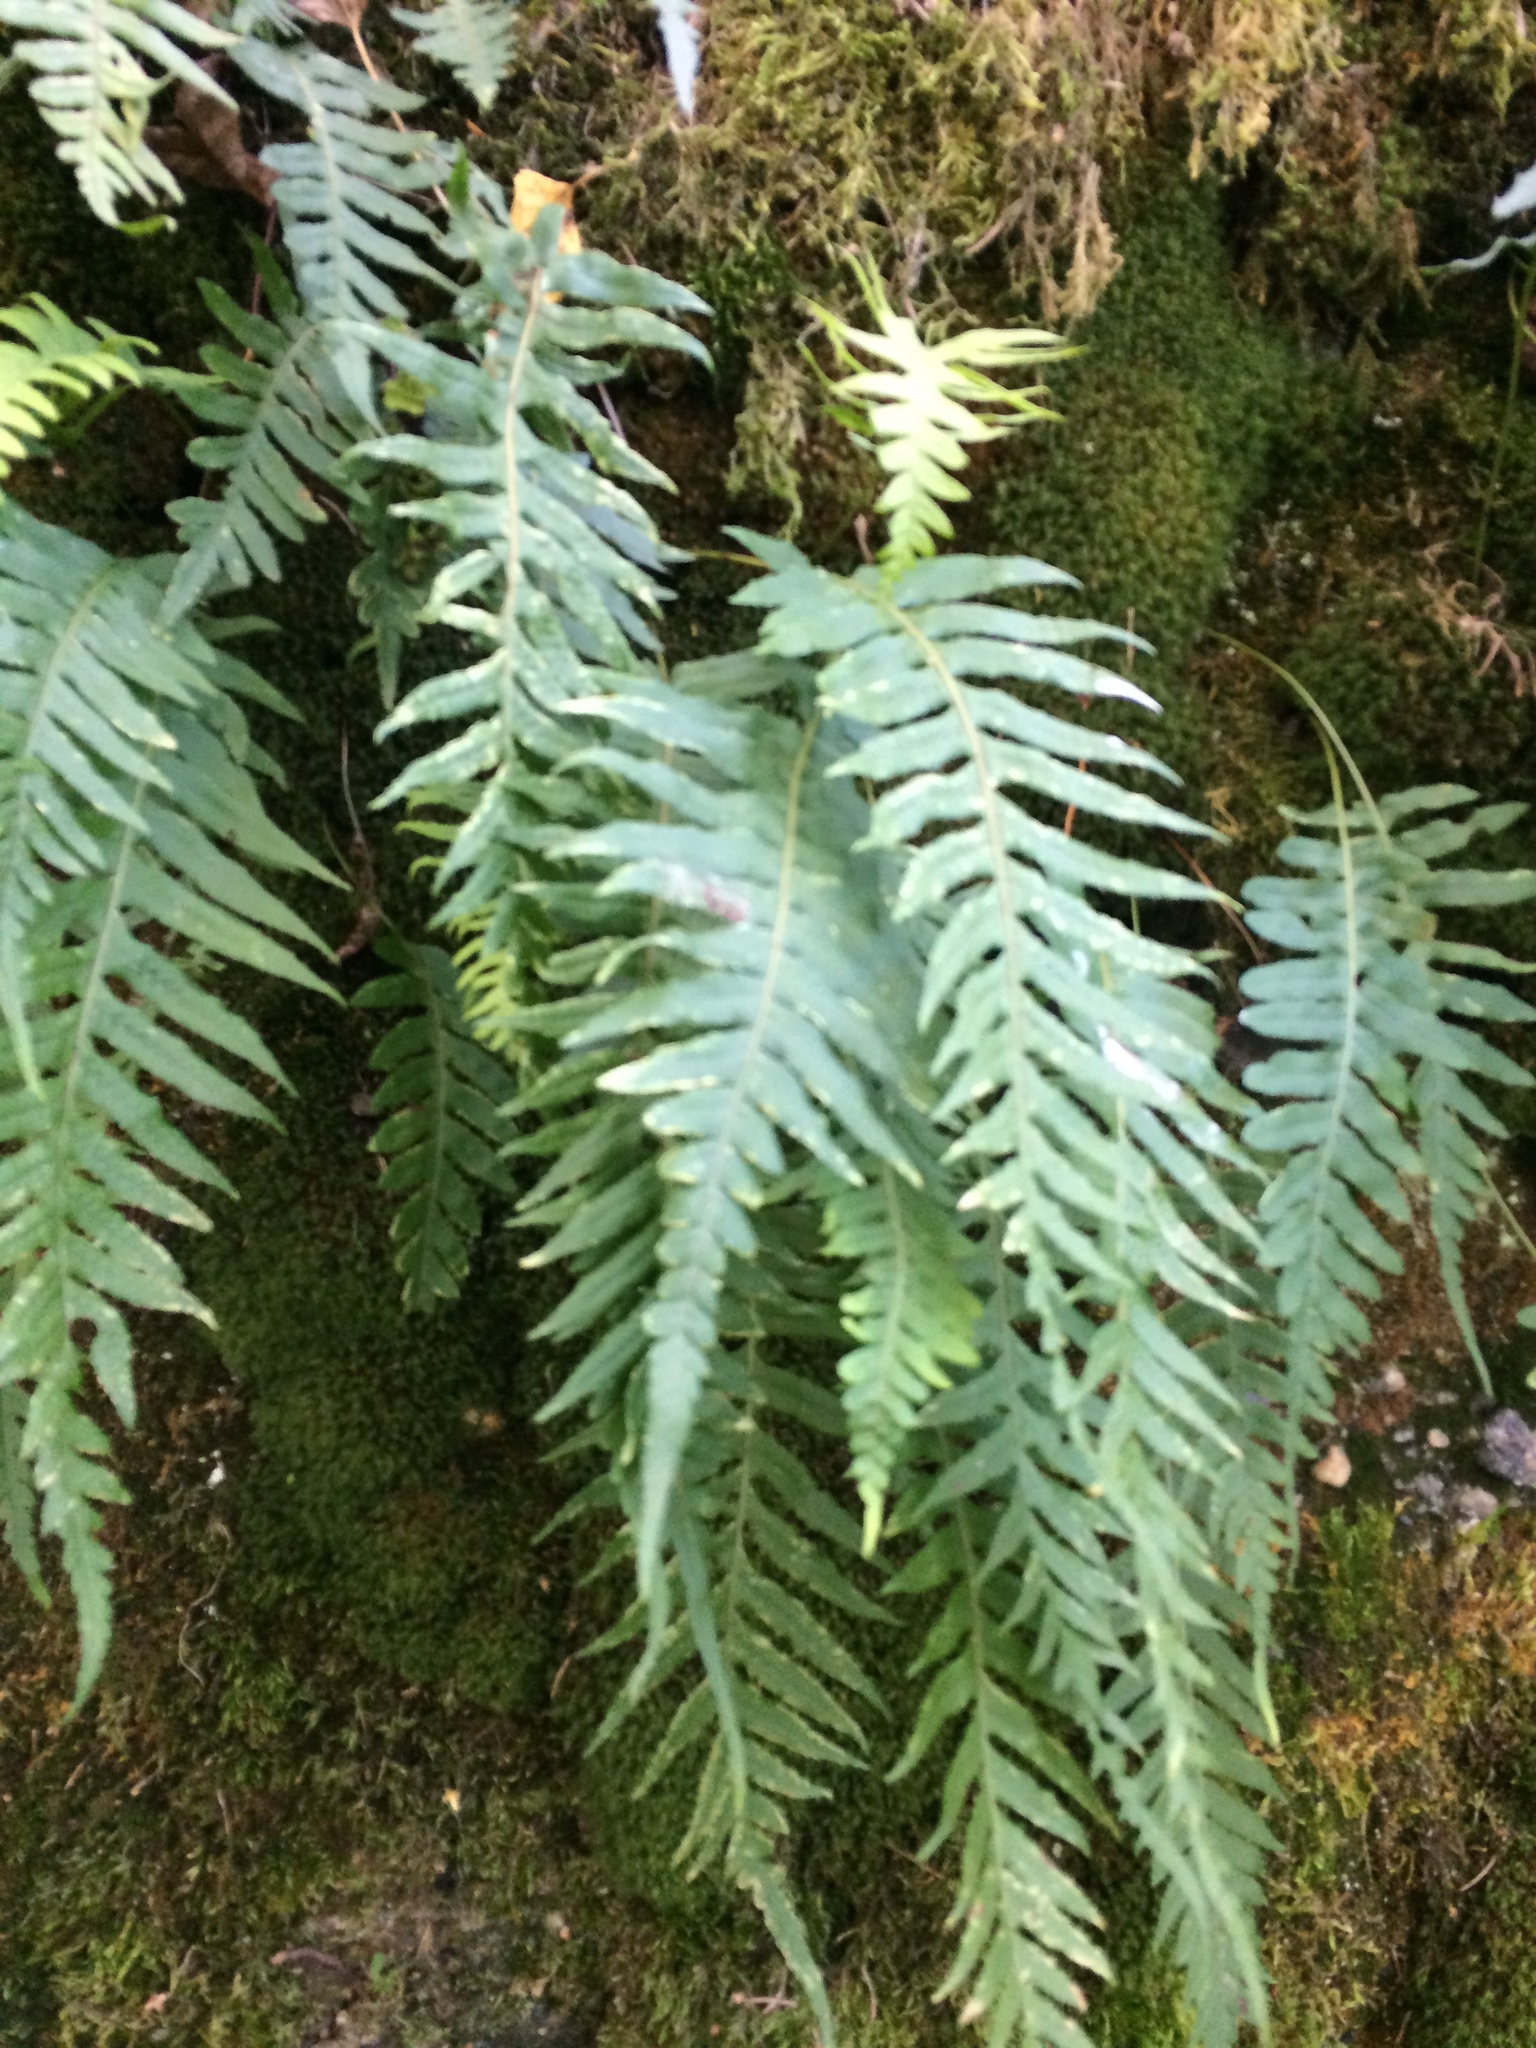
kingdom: Plantae
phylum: Tracheophyta
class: Polypodiopsida
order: Polypodiales
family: Polypodiaceae
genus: Polypodium
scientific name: Polypodium glycyrrhiza
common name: Licorice fern
